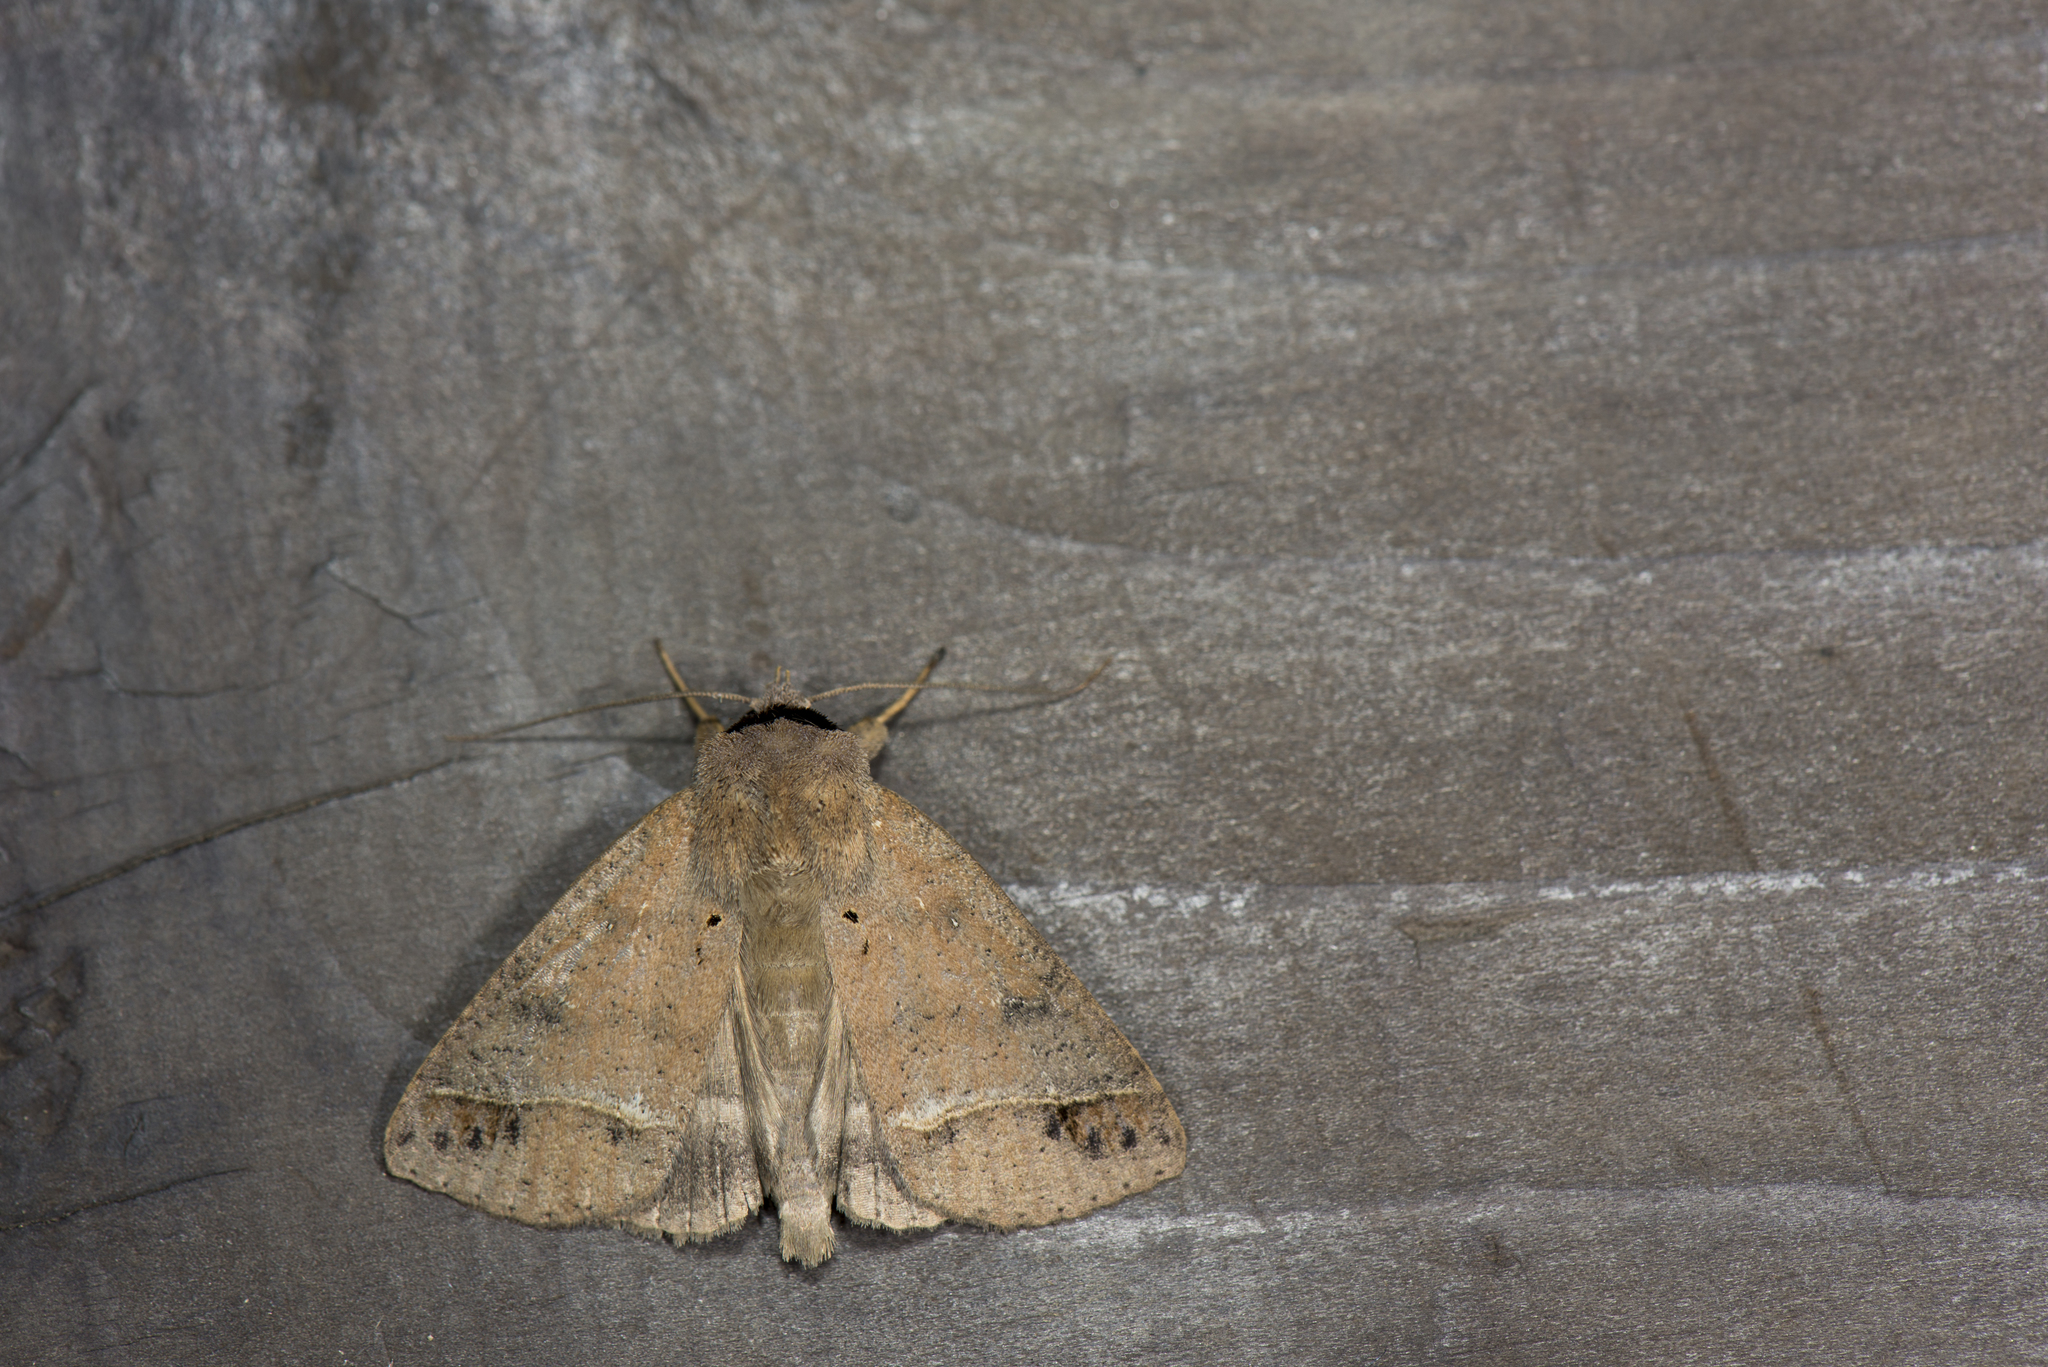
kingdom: Animalia
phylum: Arthropoda
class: Insecta
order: Lepidoptera
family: Erebidae
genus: Pantydia
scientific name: Pantydia metaspila
